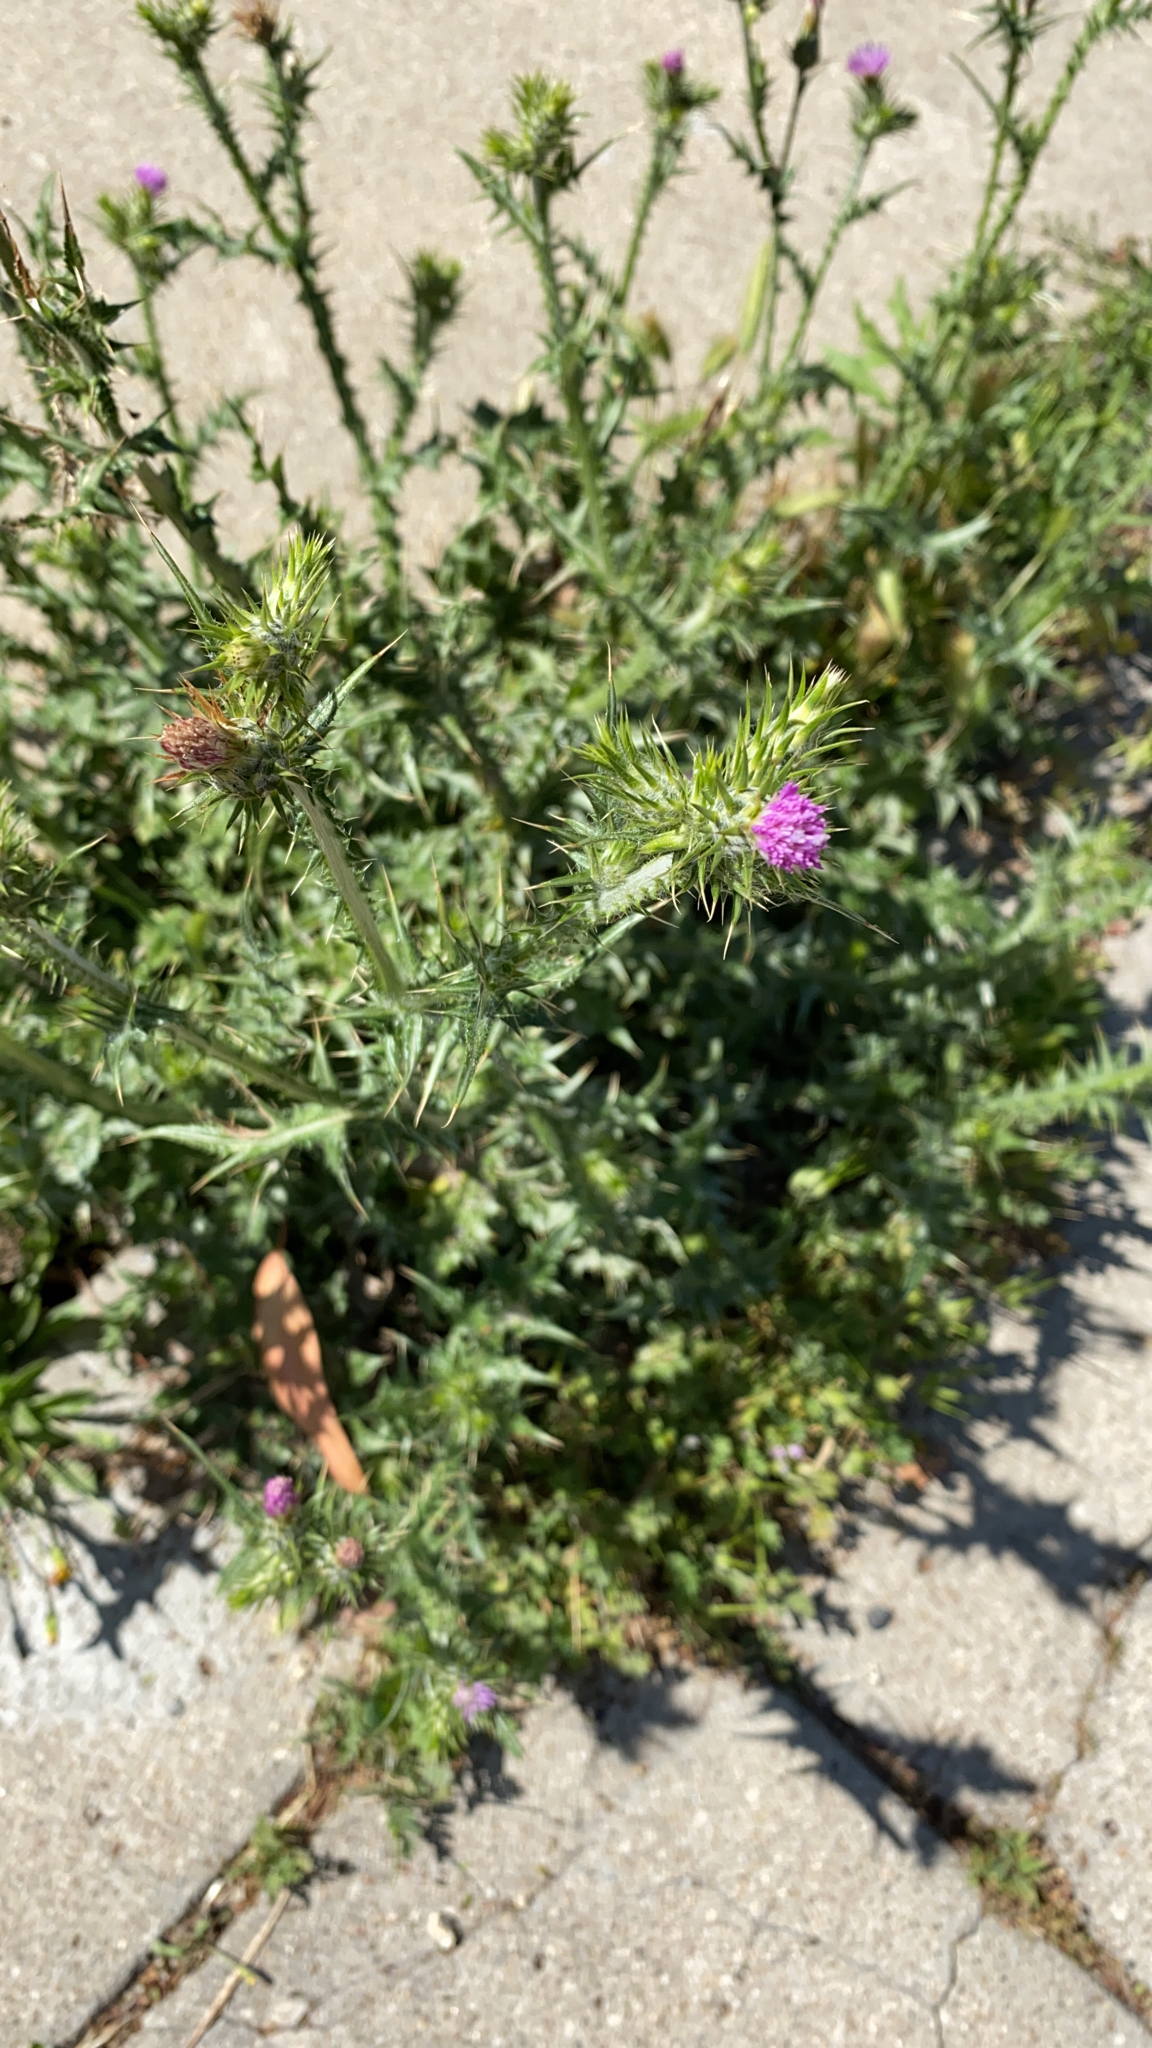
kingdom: Plantae
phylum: Tracheophyta
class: Magnoliopsida
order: Asterales
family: Asteraceae
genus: Carduus
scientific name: Carduus pycnocephalus
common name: Plymouth thistle
